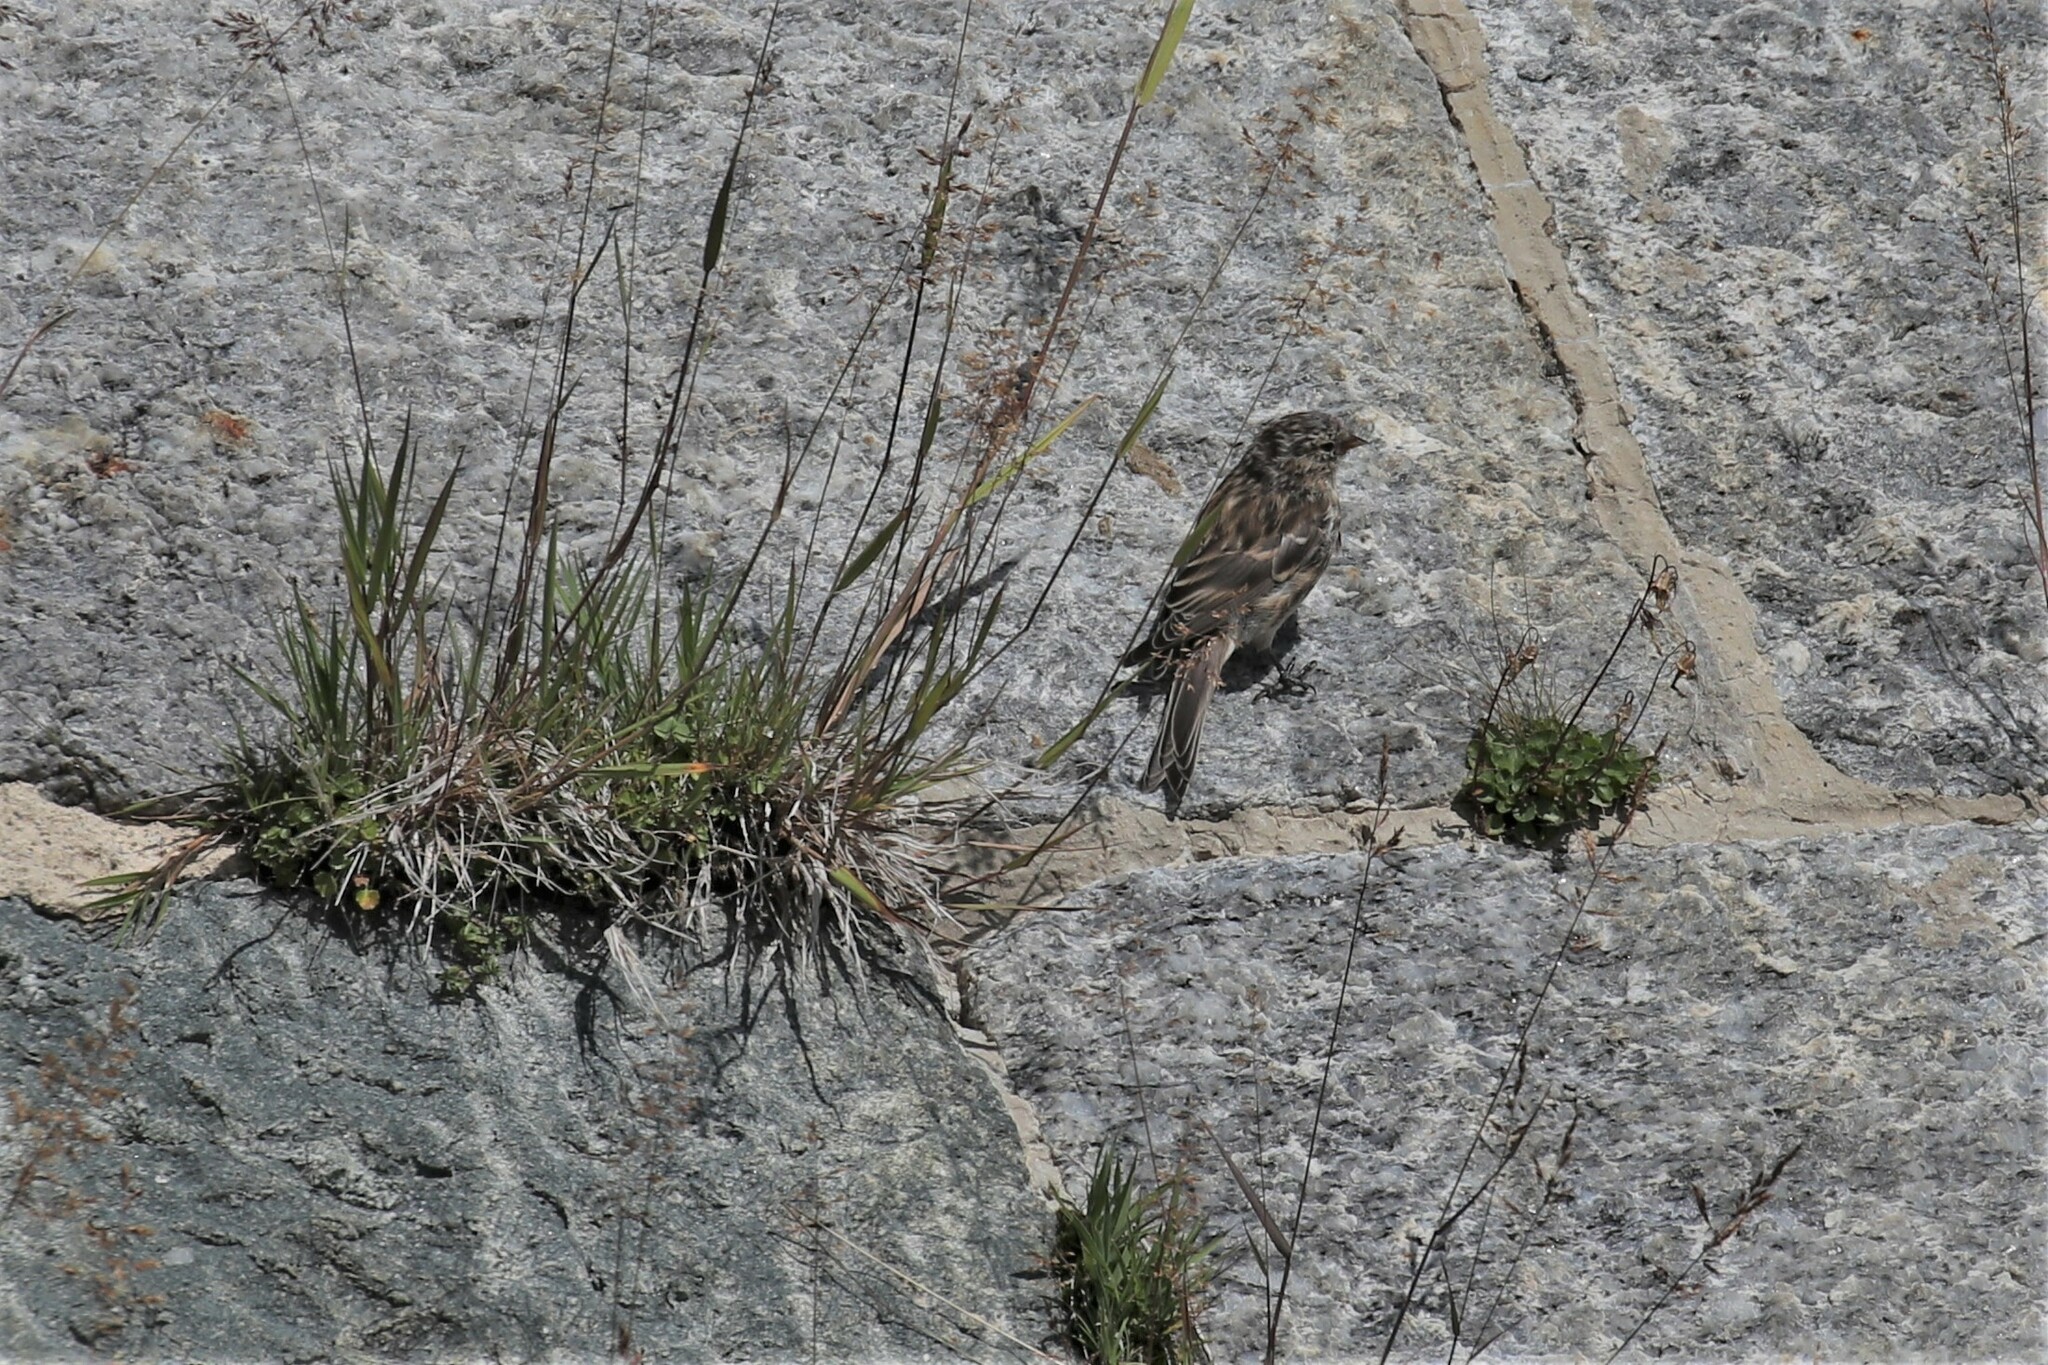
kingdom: Animalia
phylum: Chordata
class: Aves
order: Passeriformes
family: Fringillidae
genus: Acanthis
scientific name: Acanthis flammea
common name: Common redpoll
